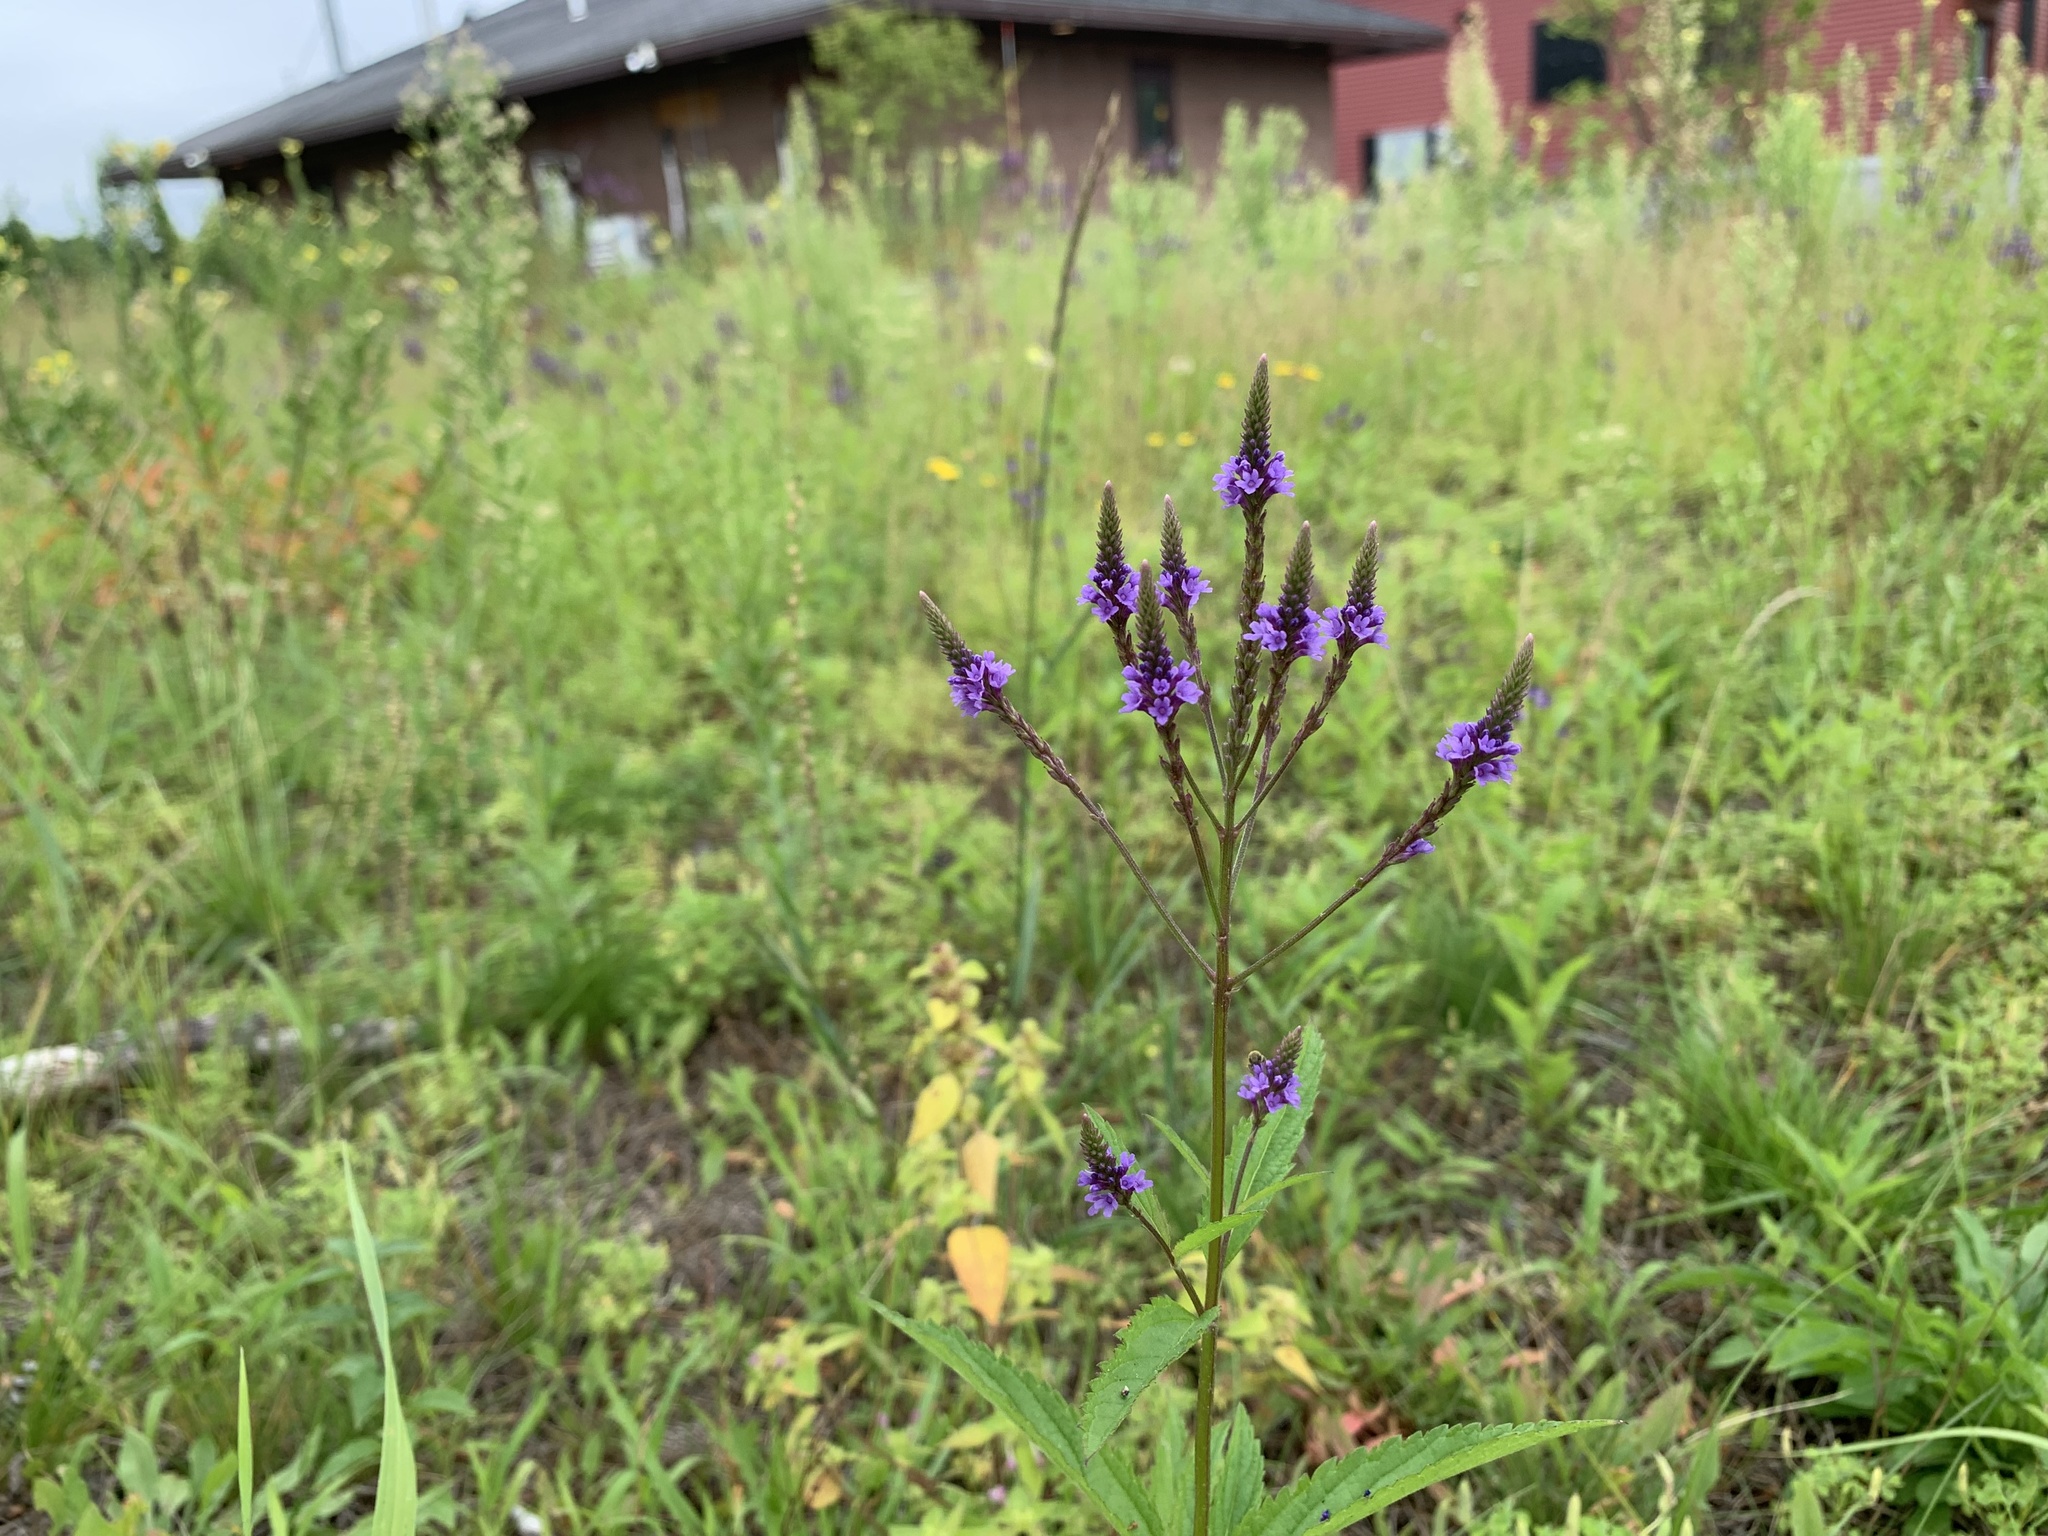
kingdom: Plantae
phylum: Tracheophyta
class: Magnoliopsida
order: Lamiales
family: Verbenaceae
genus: Verbena
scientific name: Verbena hastata
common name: American blue vervain
